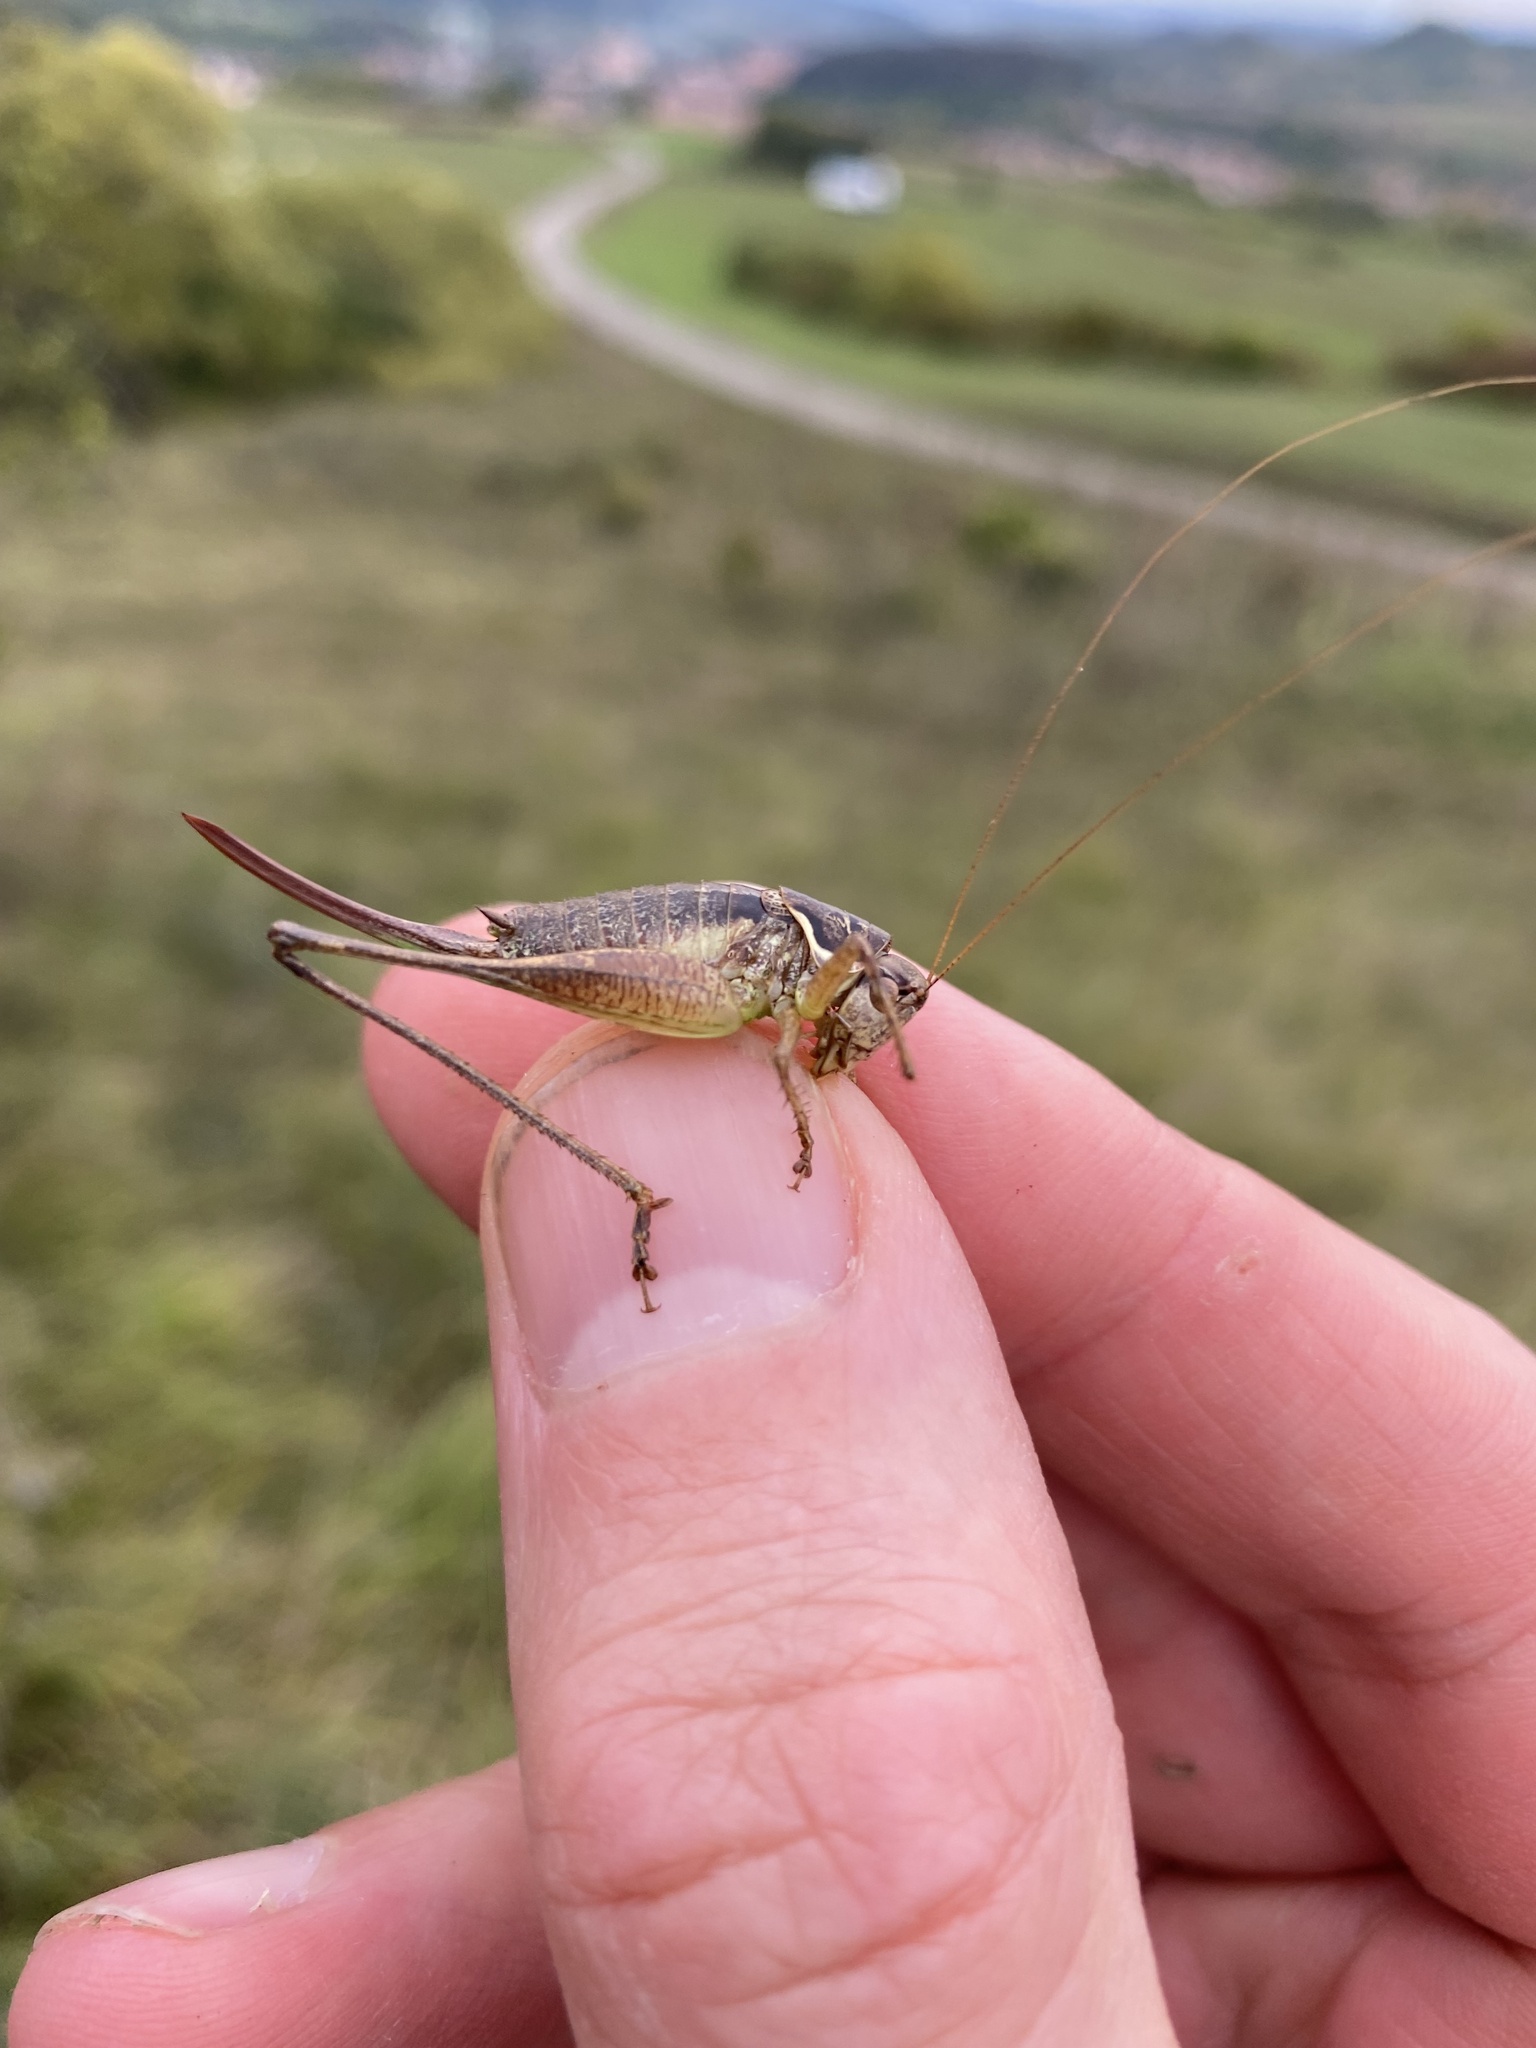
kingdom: Animalia
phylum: Arthropoda
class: Insecta
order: Orthoptera
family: Tettigoniidae
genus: Pachytrachis
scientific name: Pachytrachis gracilis
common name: Graceful bush-cricket
